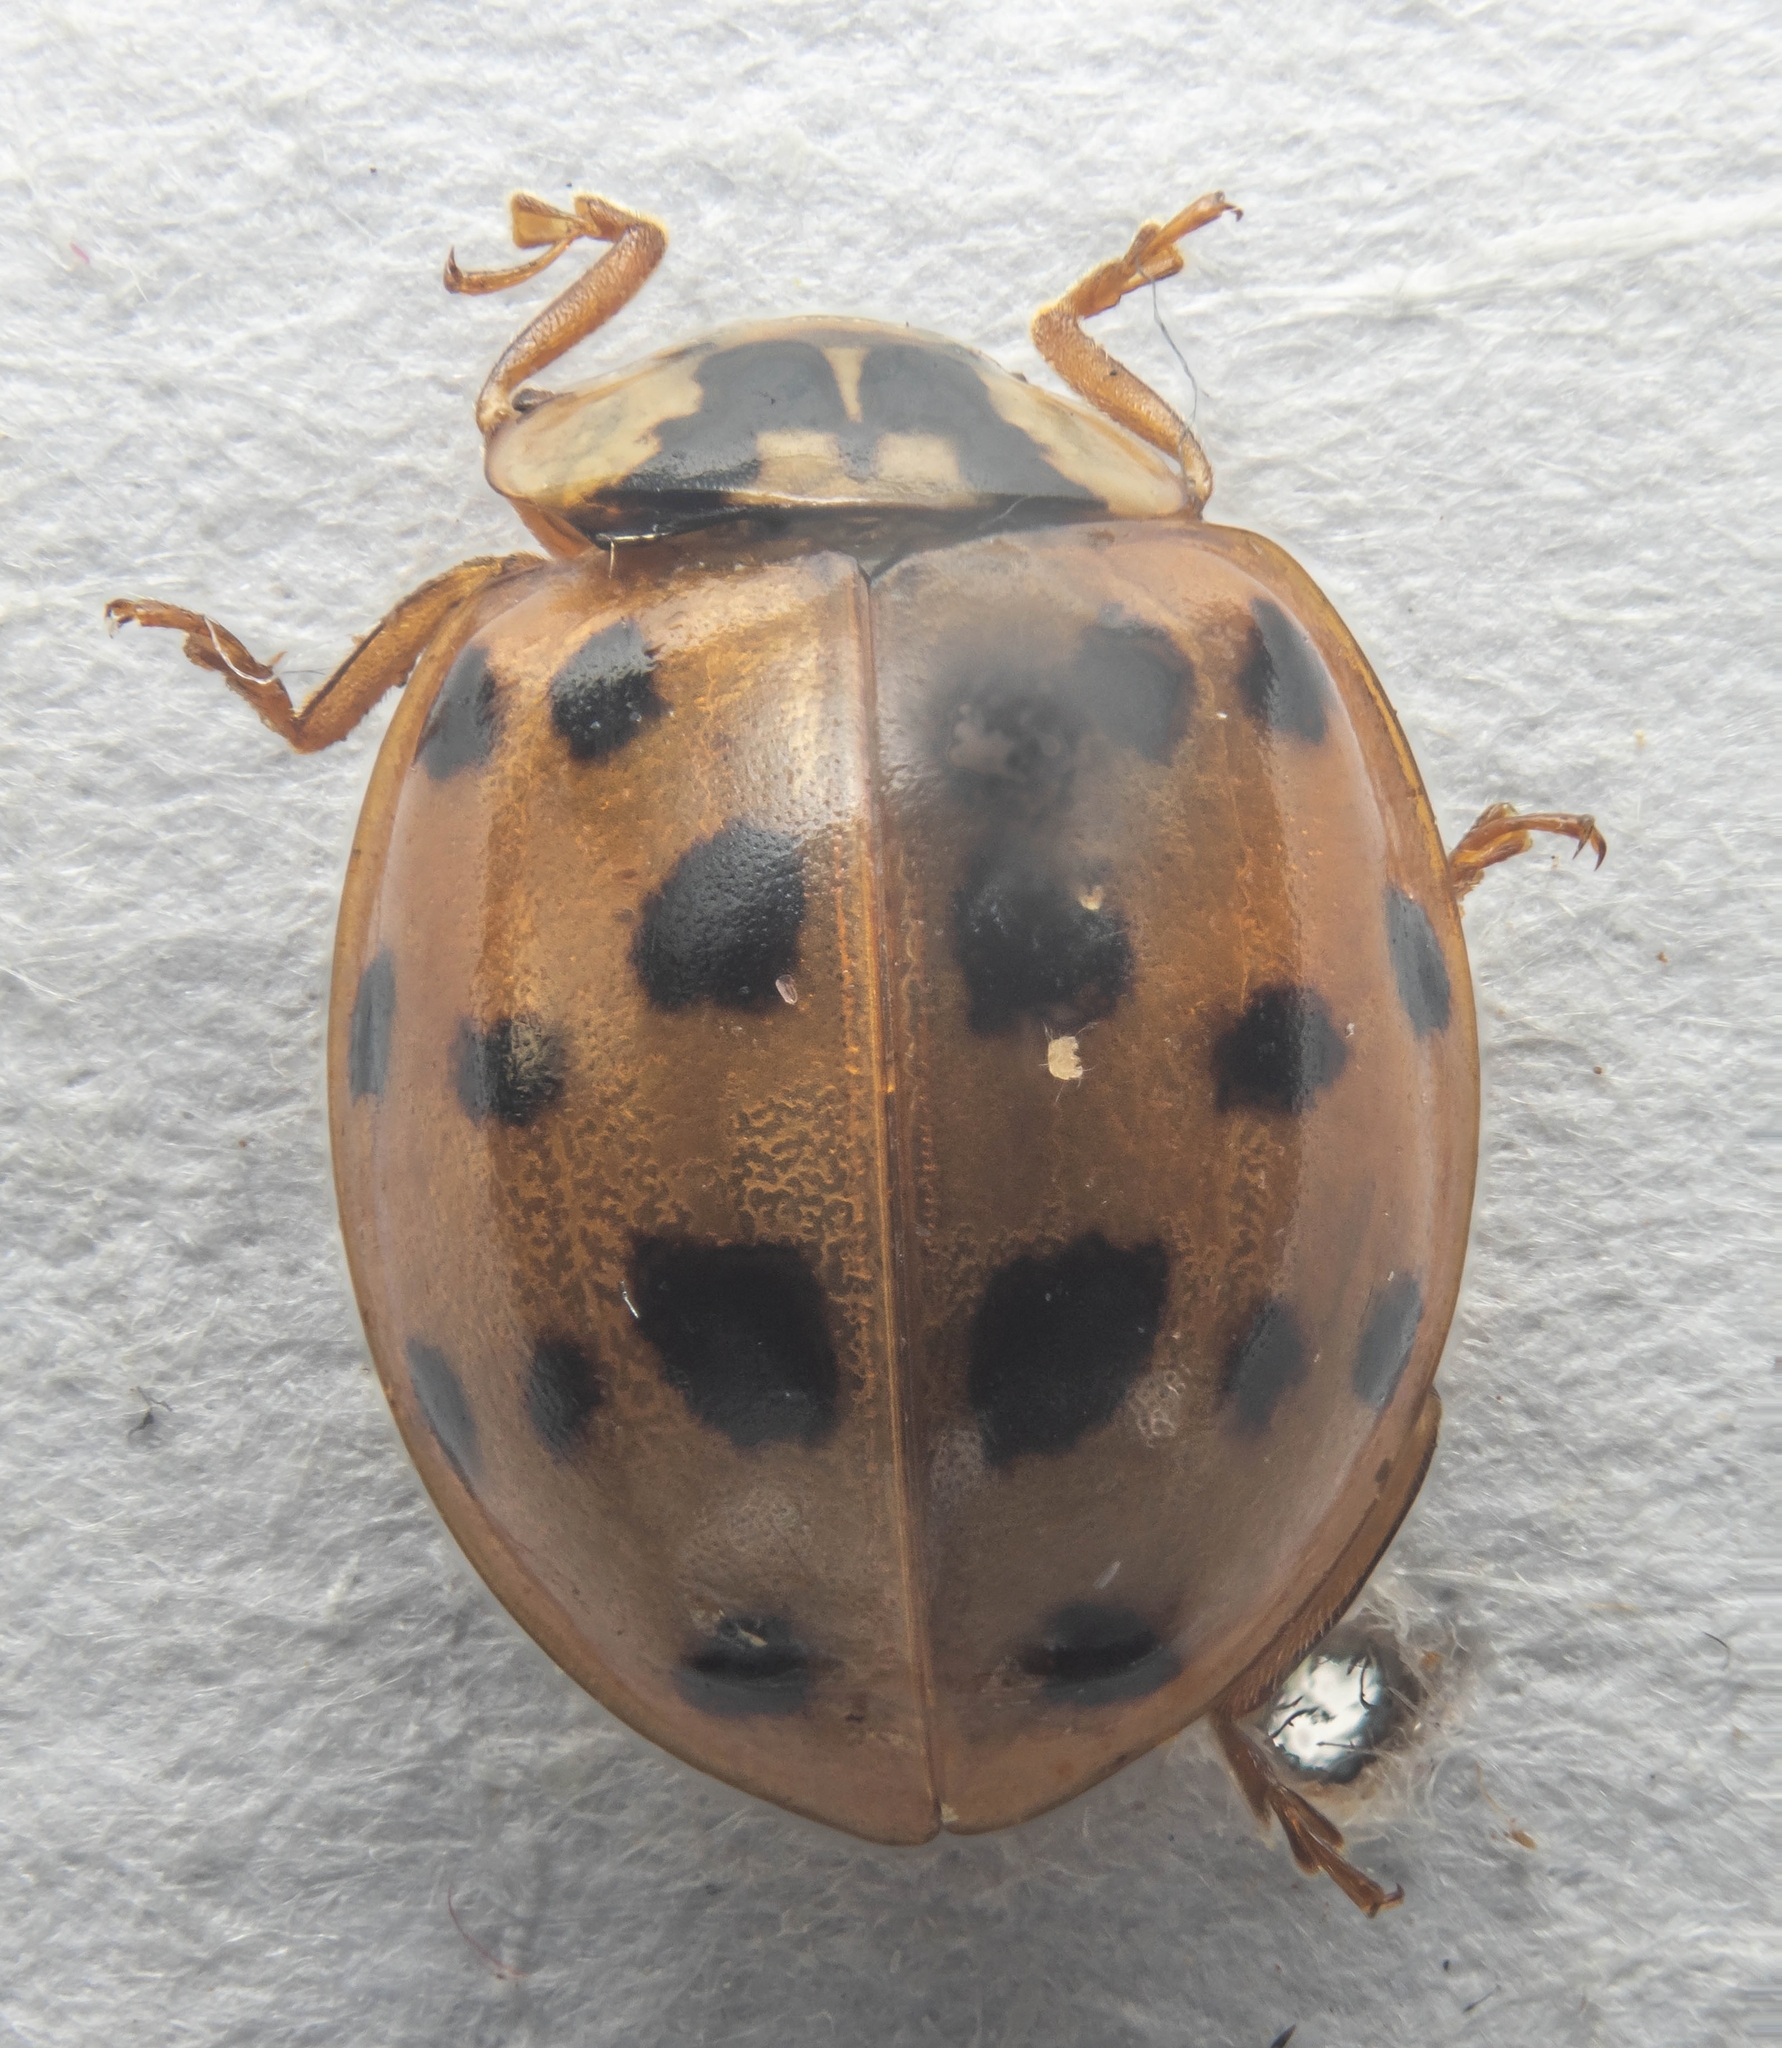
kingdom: Animalia
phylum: Arthropoda
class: Insecta
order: Coleoptera
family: Coccinellidae
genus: Harmonia
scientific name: Harmonia axyridis
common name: Harlequin ladybird
